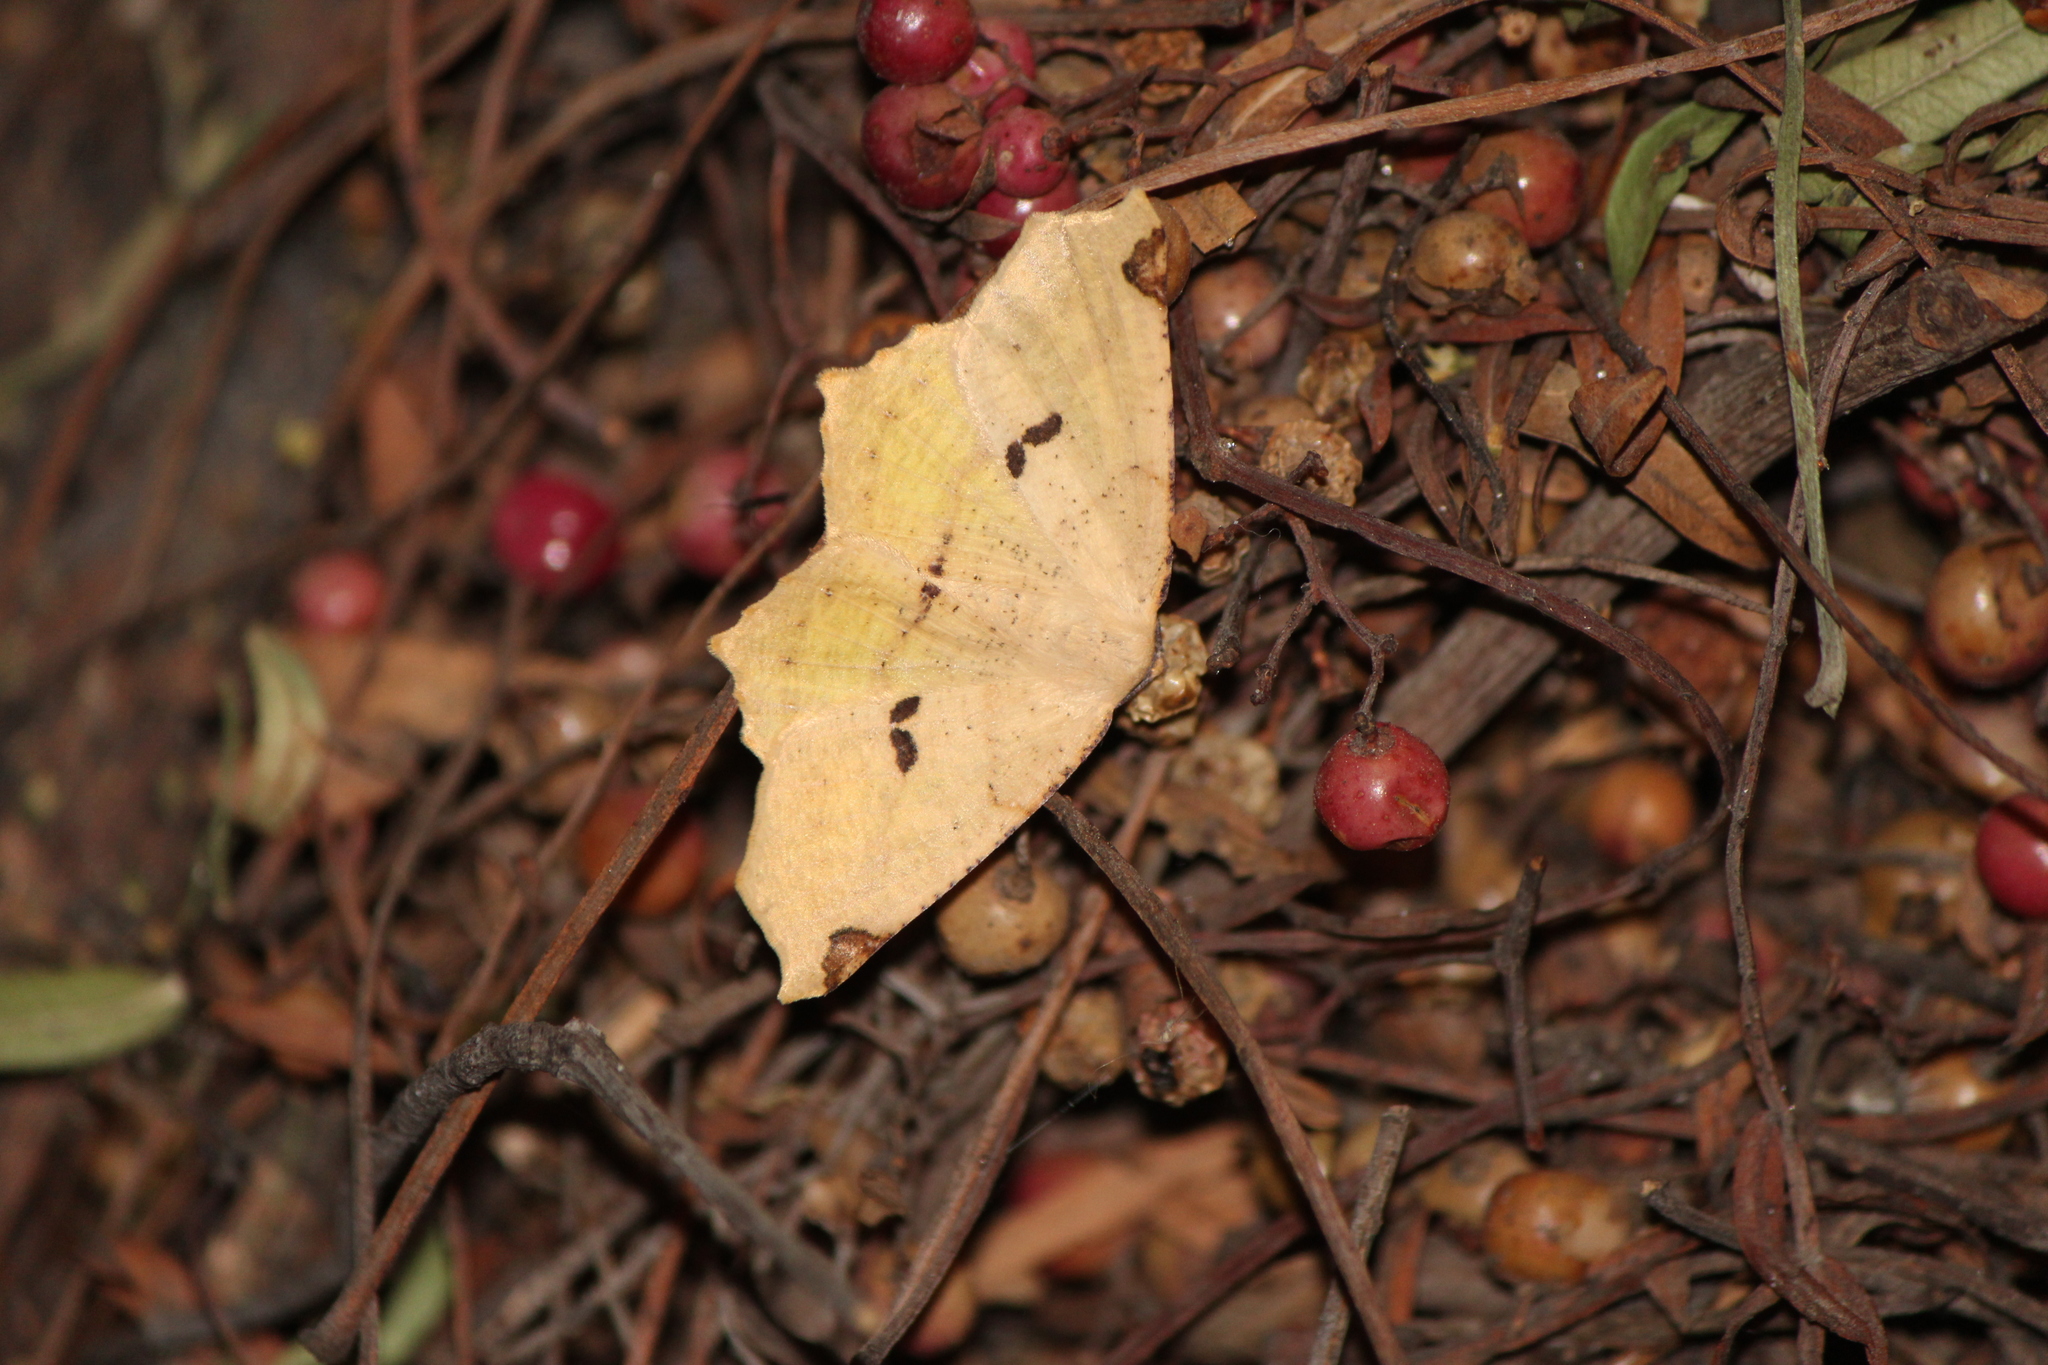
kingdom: Animalia
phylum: Arthropoda
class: Insecta
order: Lepidoptera
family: Geometridae
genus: Antepione
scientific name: Antepione thisoaria
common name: Variable antipione
